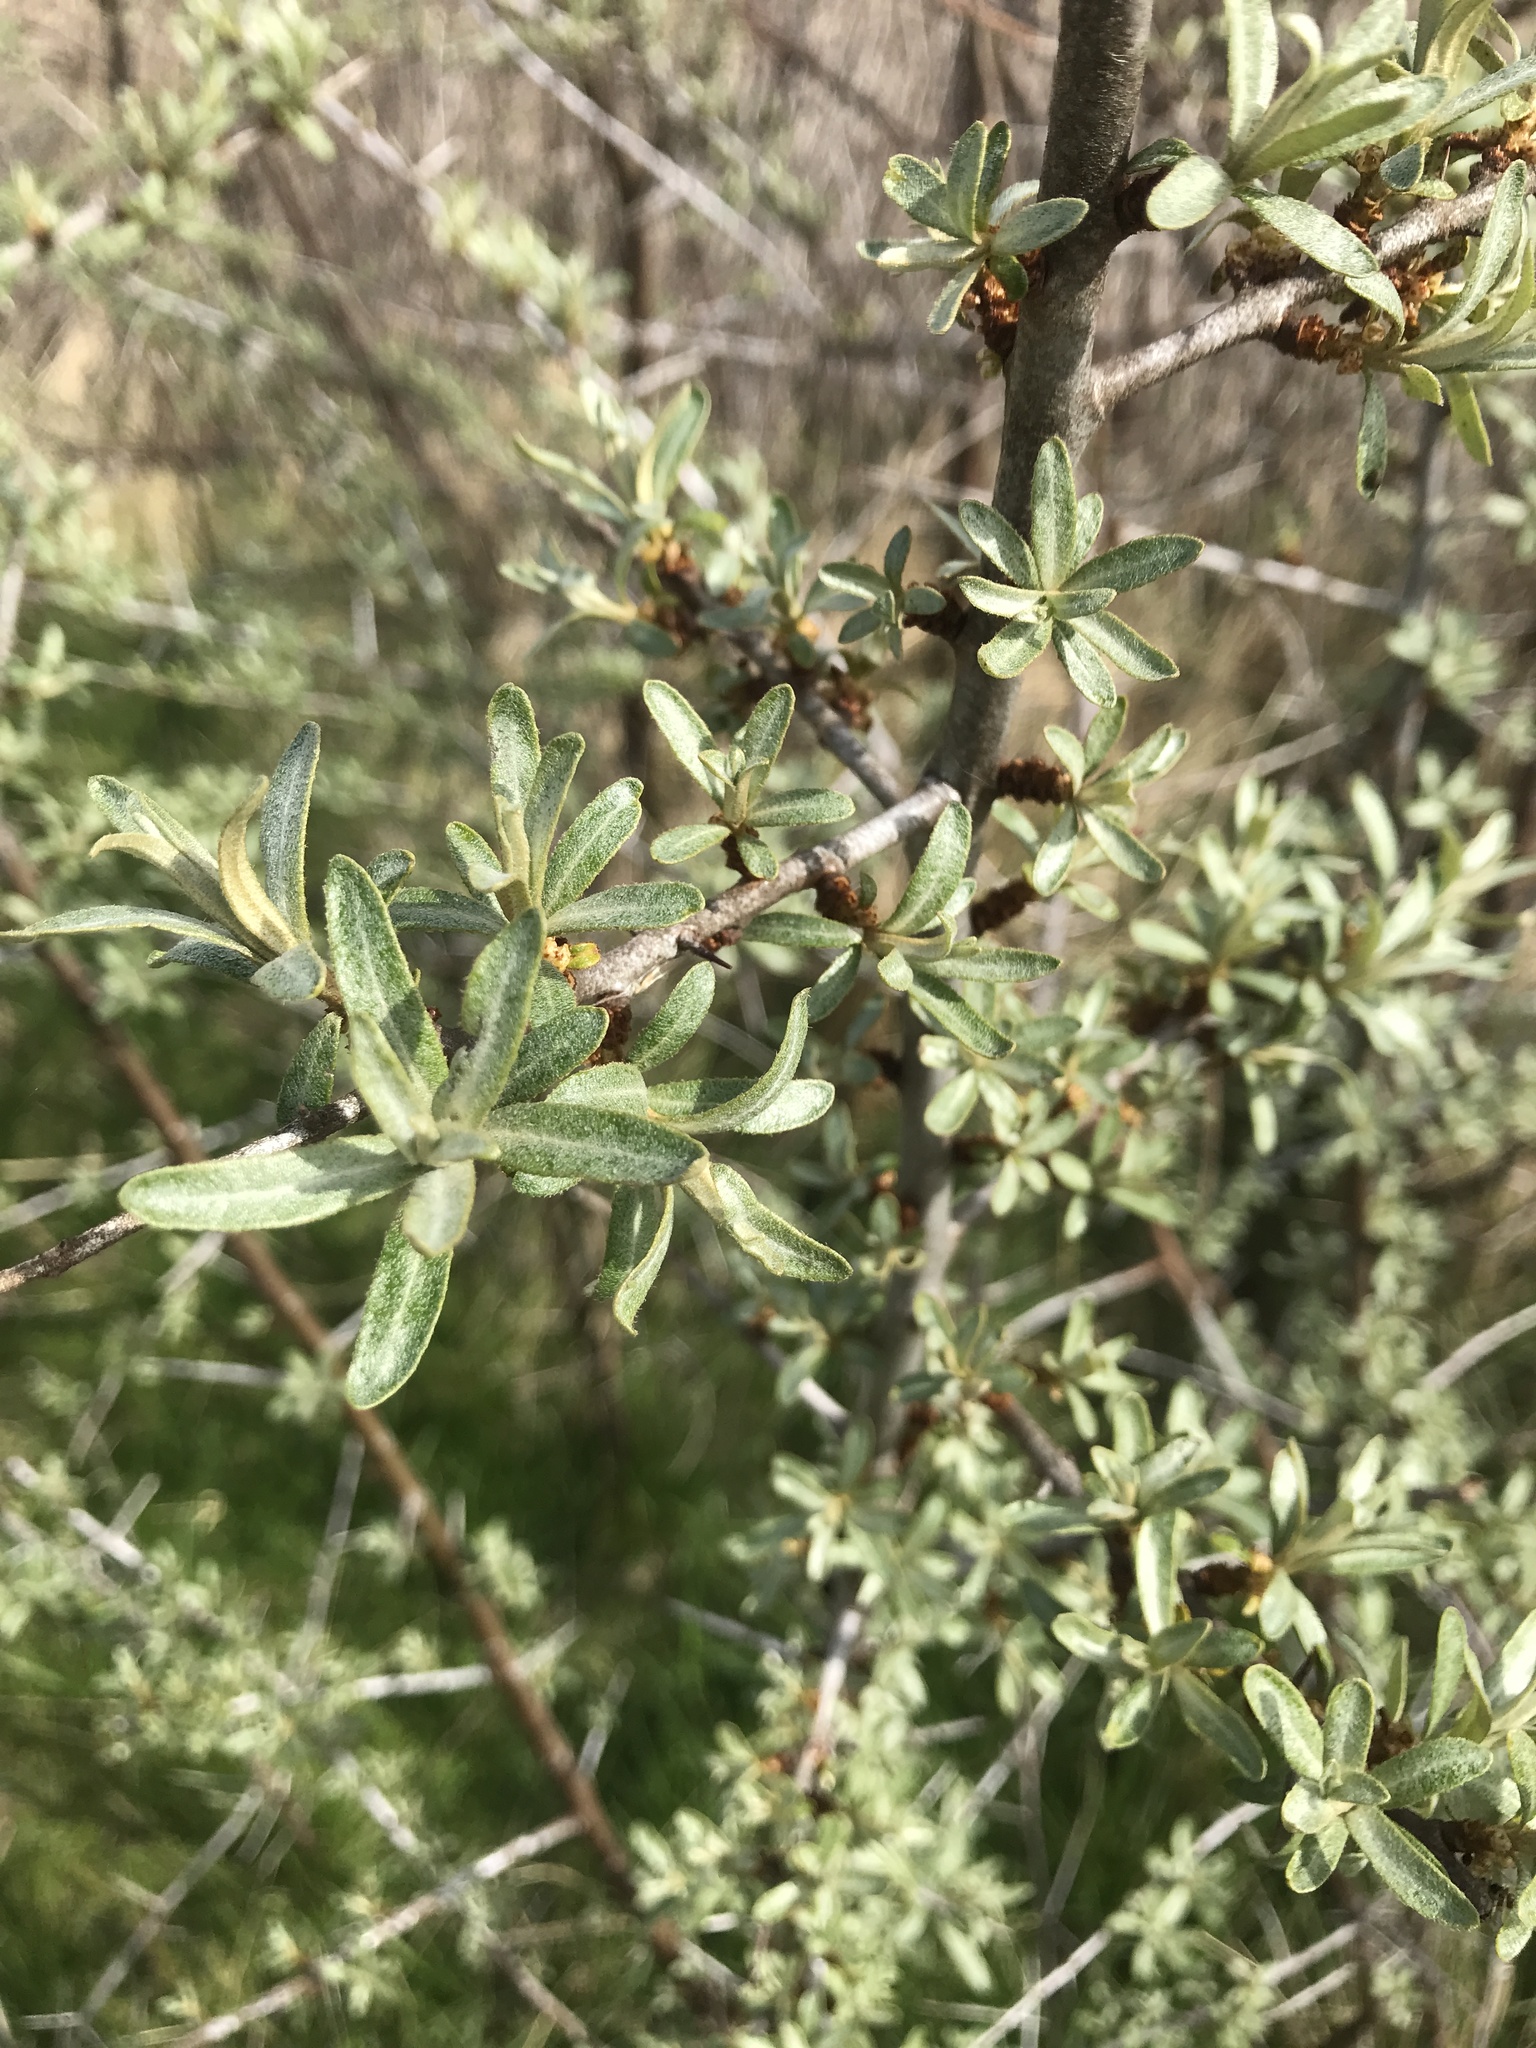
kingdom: Plantae
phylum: Tracheophyta
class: Magnoliopsida
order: Rosales
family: Elaeagnaceae
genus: Hippophae
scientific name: Hippophae rhamnoides
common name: Sea-buckthorn
